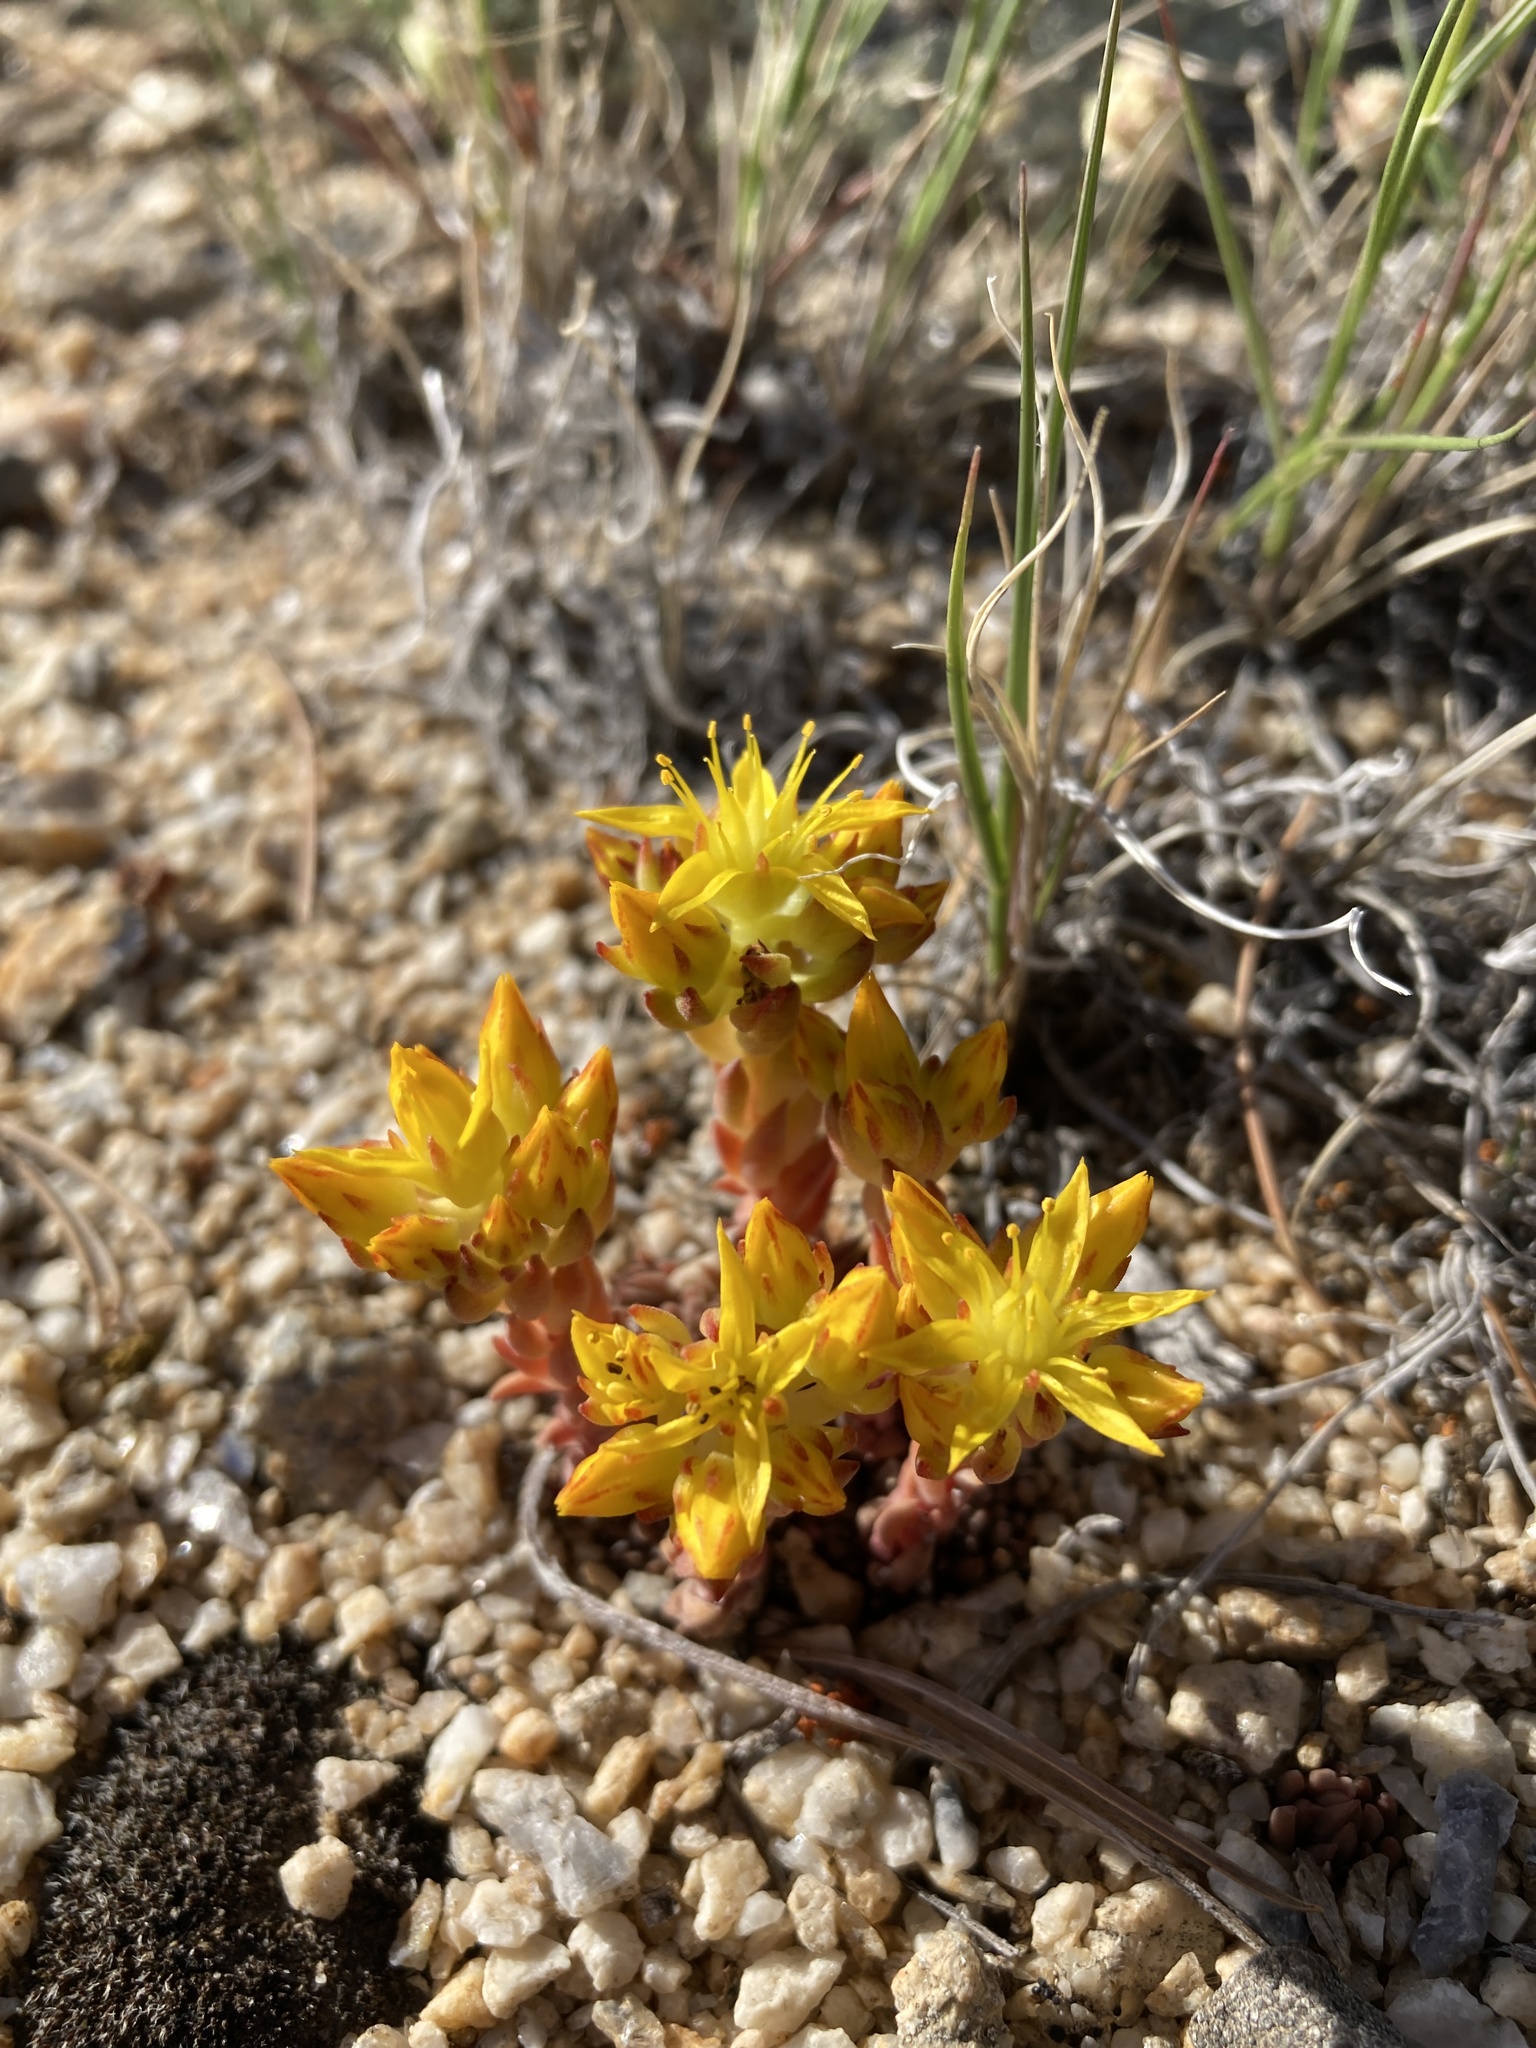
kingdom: Plantae
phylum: Tracheophyta
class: Magnoliopsida
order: Saxifragales
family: Crassulaceae
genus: Sedum
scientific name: Sedum lanceolatum
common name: Common stonecrop
